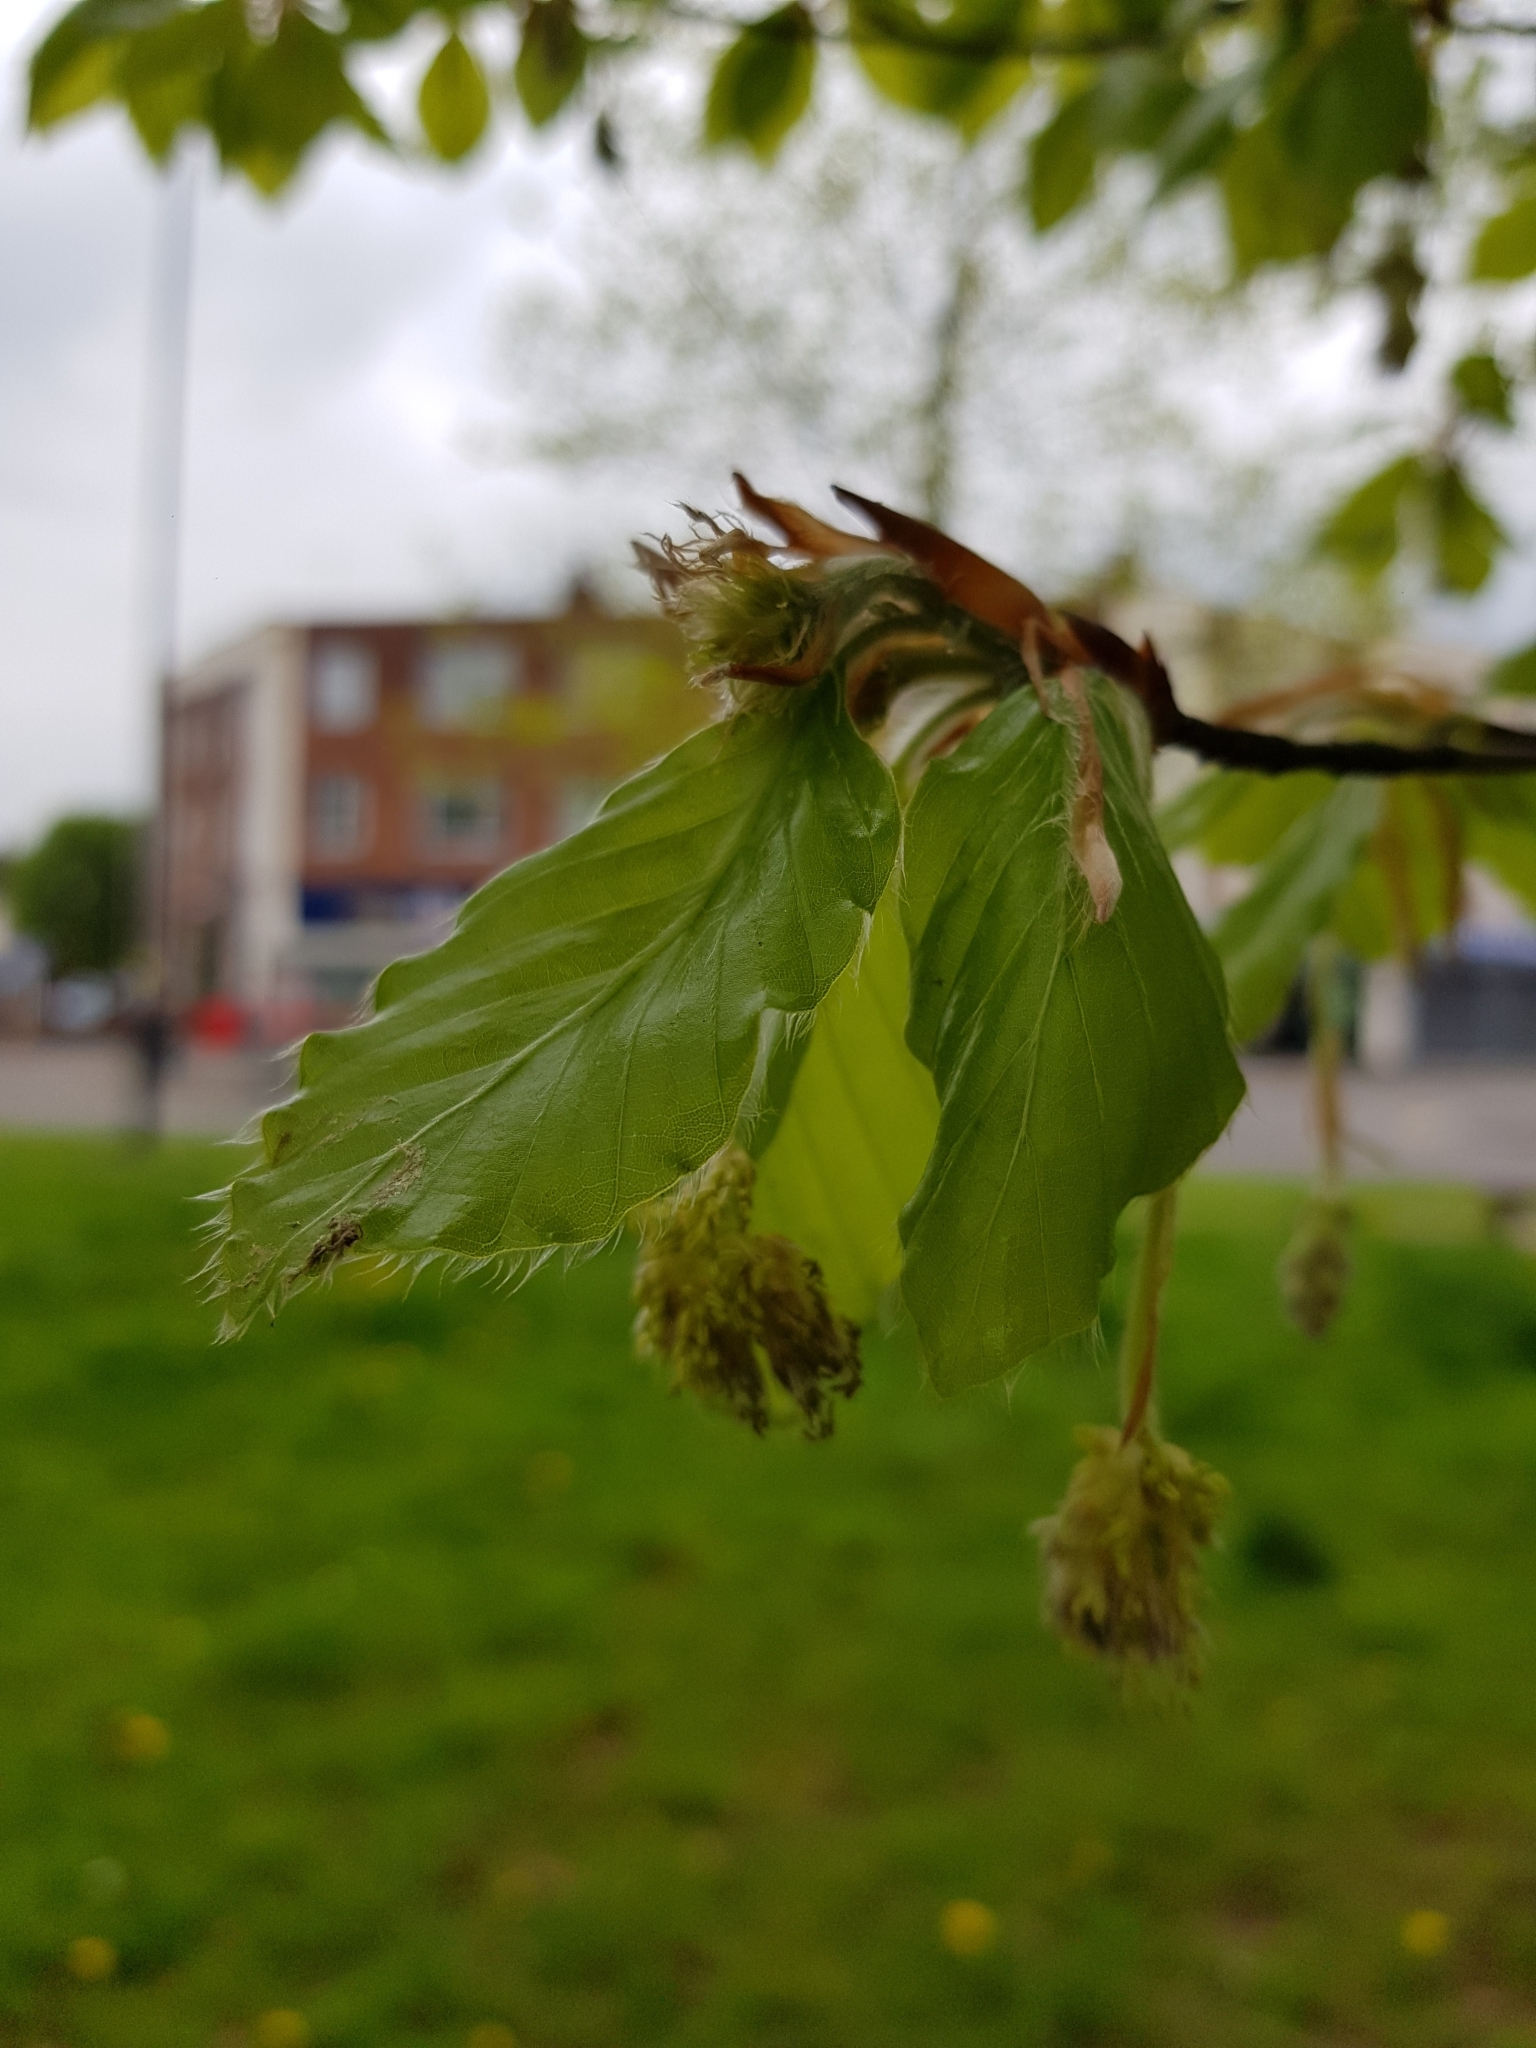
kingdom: Plantae
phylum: Tracheophyta
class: Magnoliopsida
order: Fagales
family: Fagaceae
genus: Fagus
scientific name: Fagus sylvatica
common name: Beech
